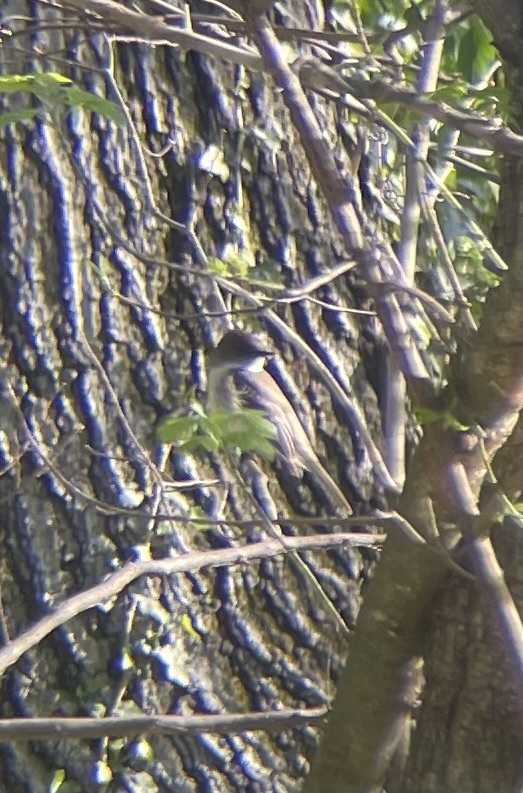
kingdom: Animalia
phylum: Chordata
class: Aves
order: Passeriformes
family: Tyrannidae
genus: Sayornis
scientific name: Sayornis phoebe
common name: Eastern phoebe
